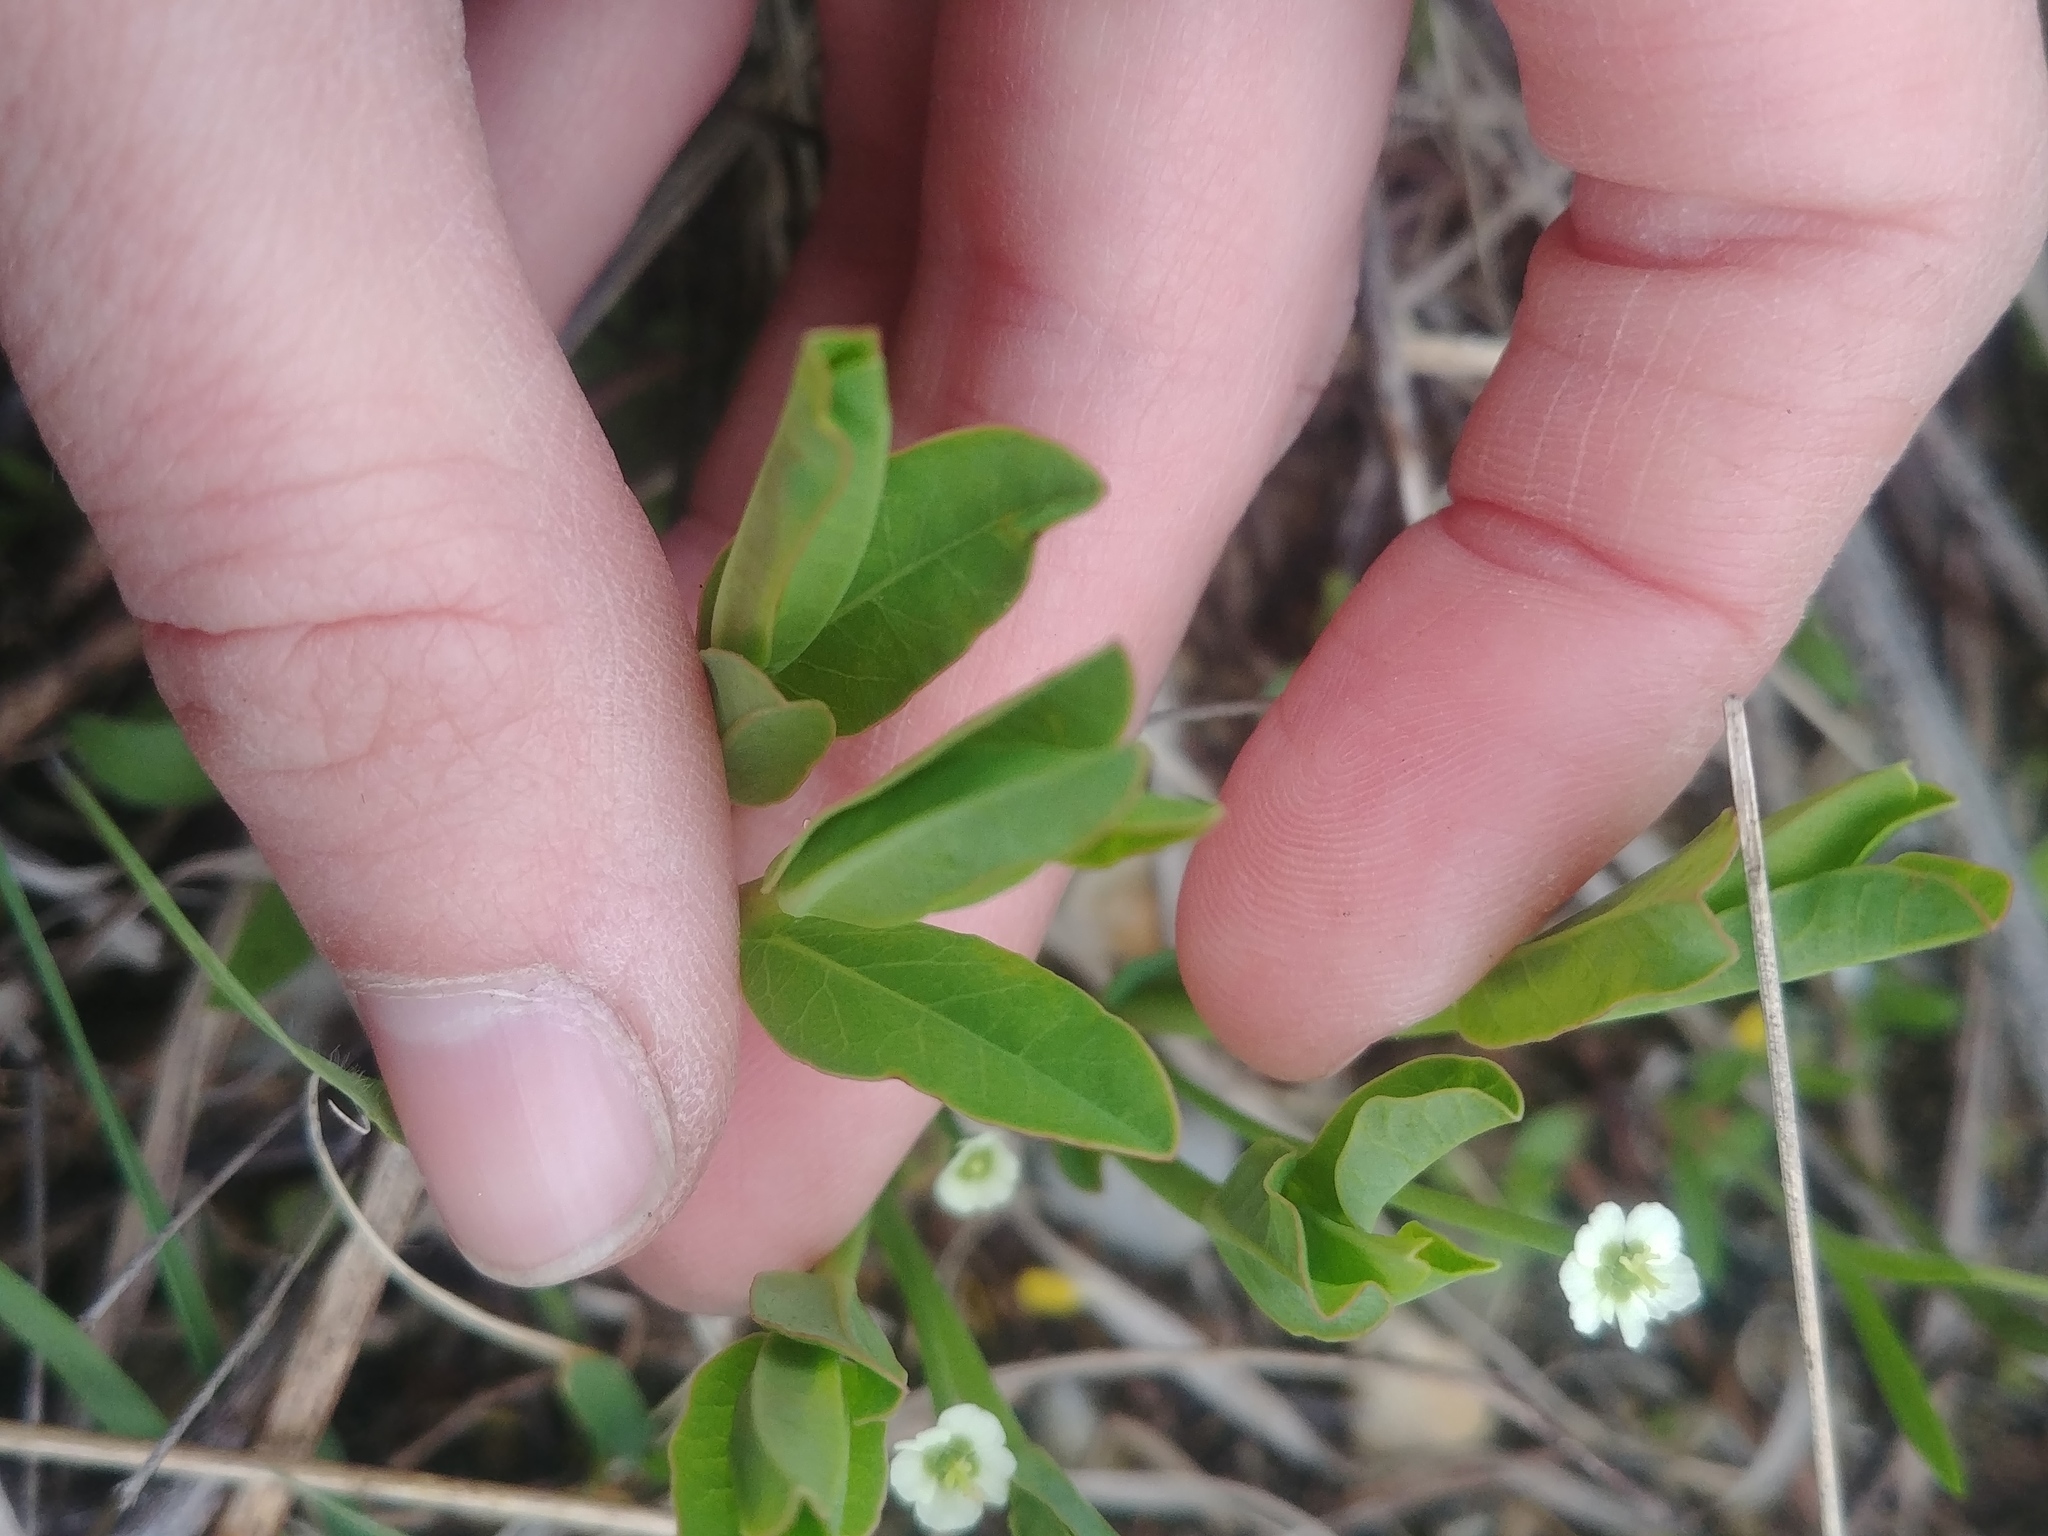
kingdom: Plantae
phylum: Tracheophyta
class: Magnoliopsida
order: Malpighiales
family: Euphorbiaceae
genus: Euphorbia
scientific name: Euphorbia corollata
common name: Flowering spurge
